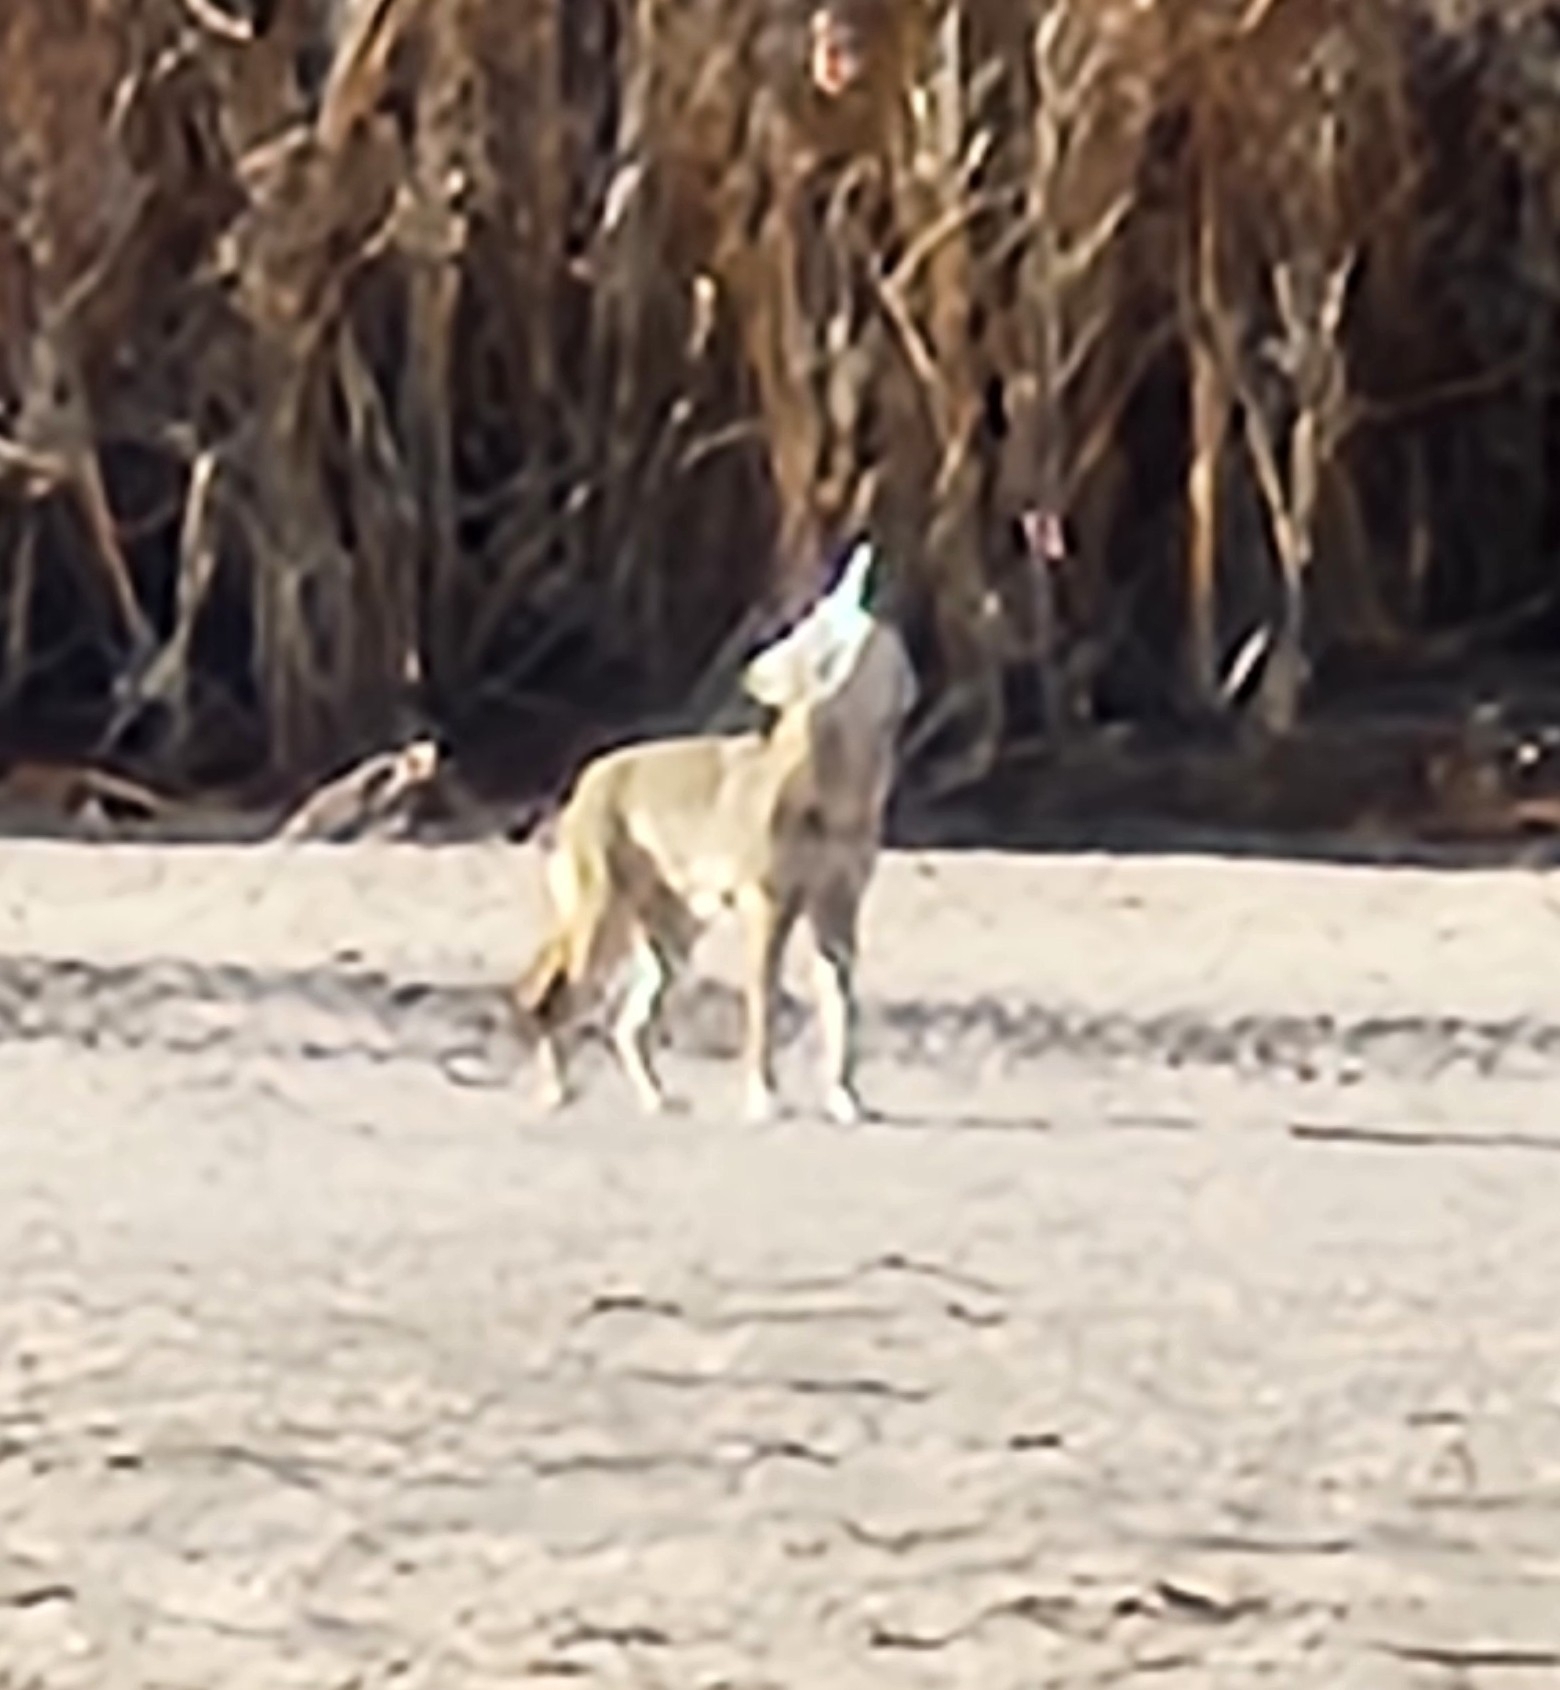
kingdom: Animalia
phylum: Chordata
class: Mammalia
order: Carnivora
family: Canidae
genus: Canis
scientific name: Canis latrans
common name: Coyote
